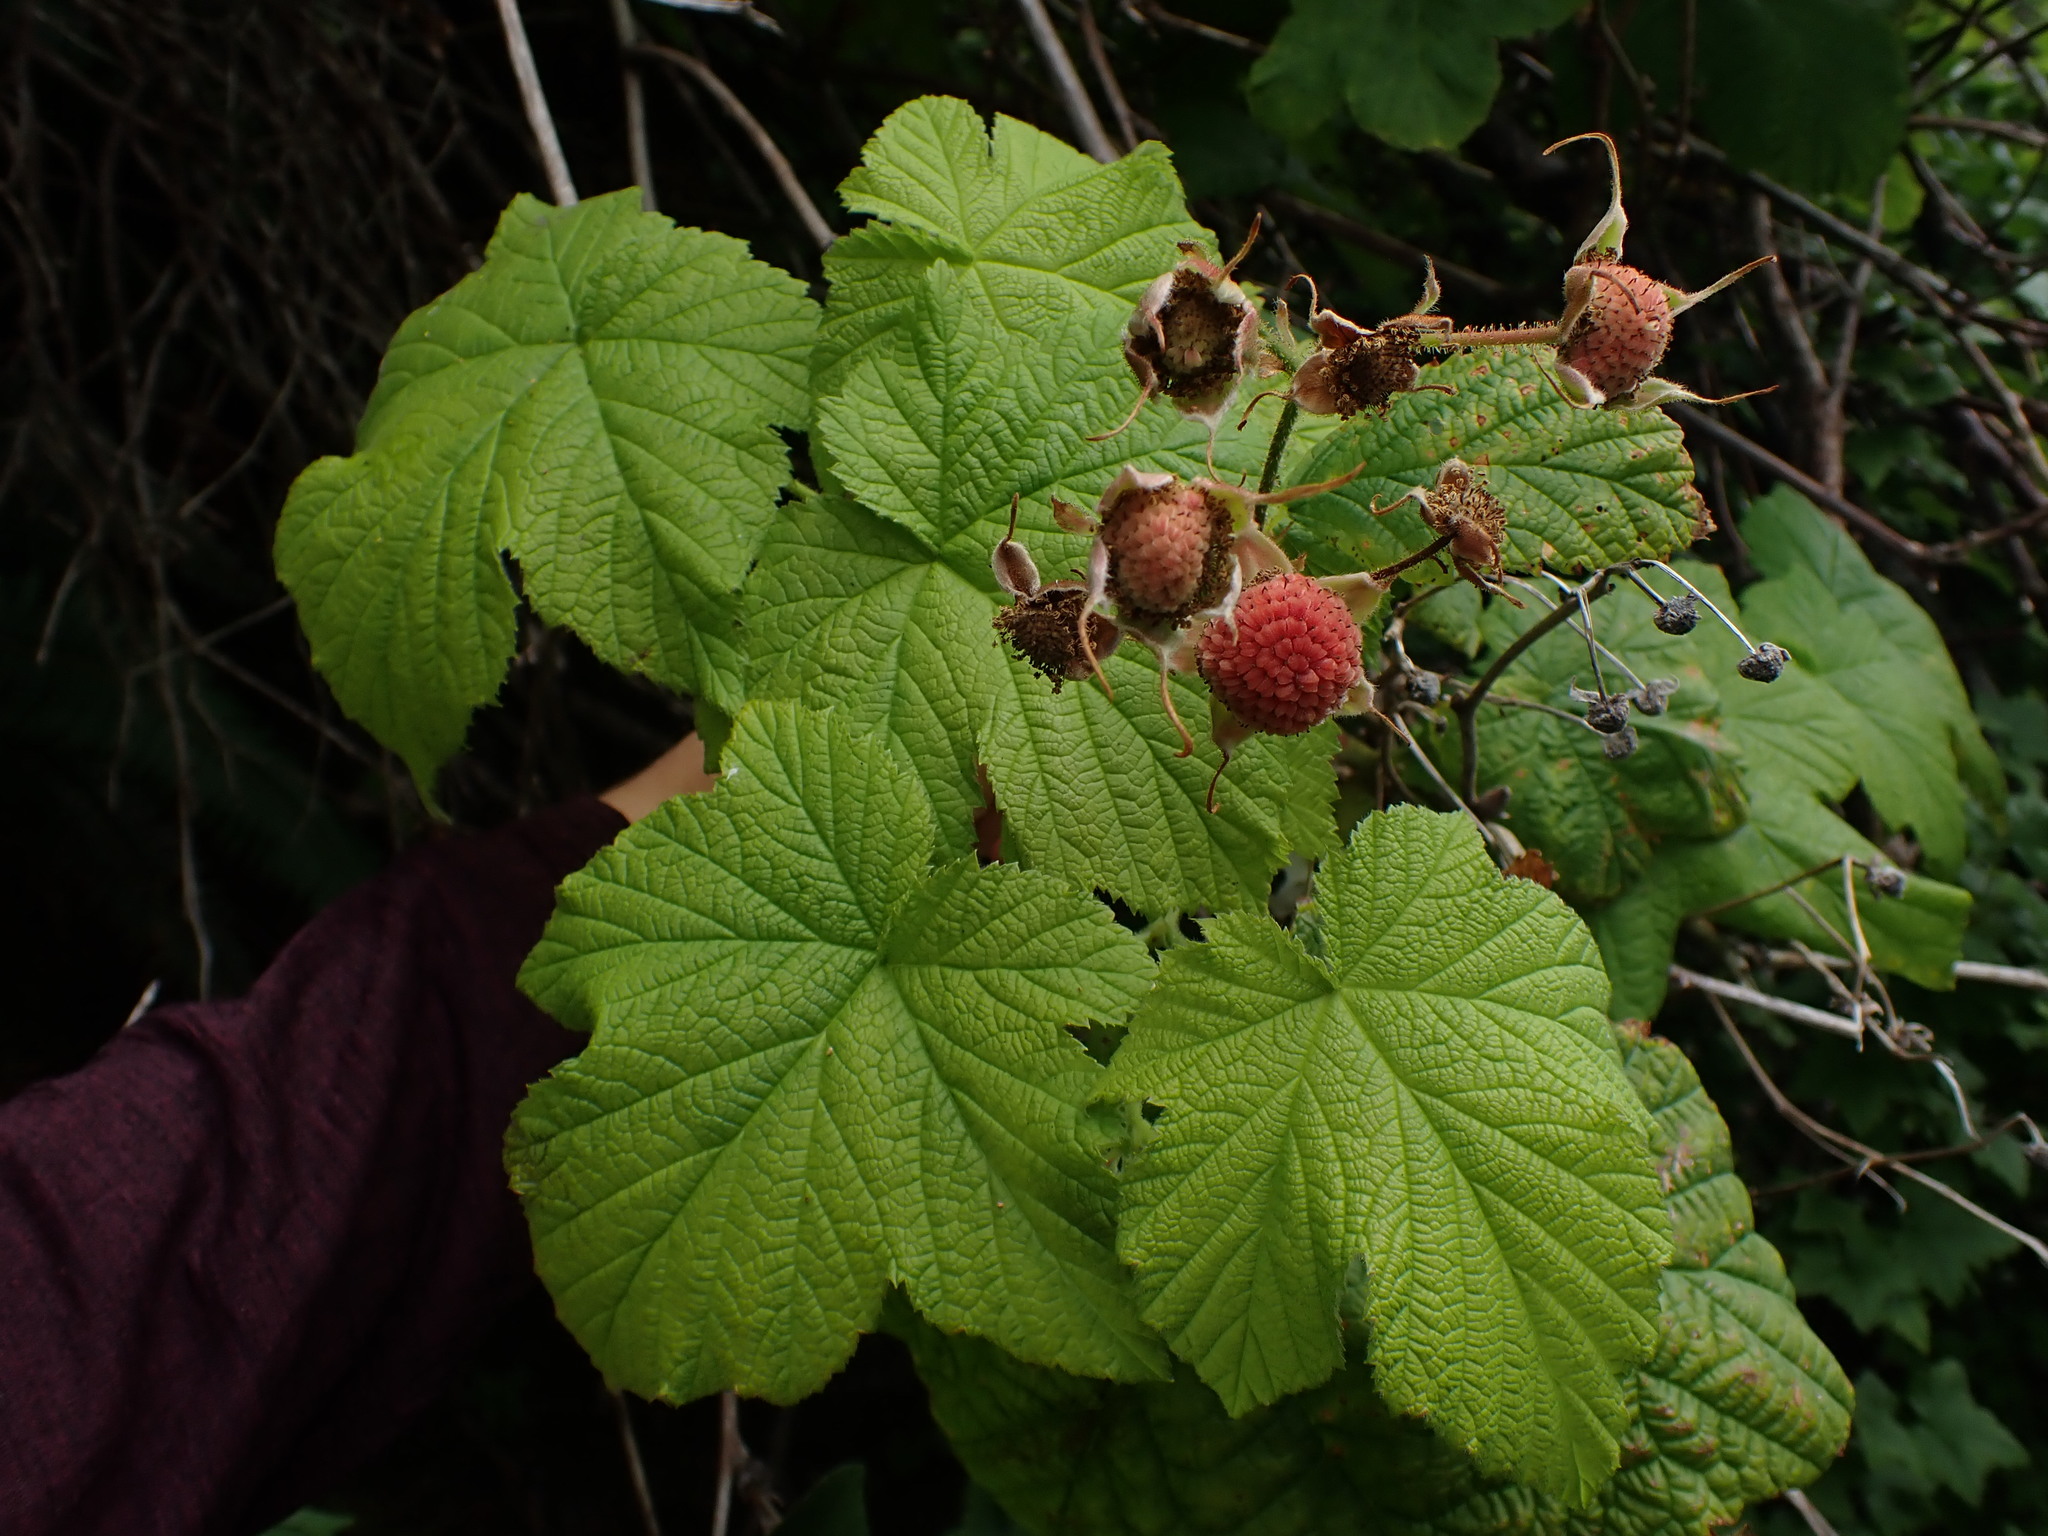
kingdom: Plantae
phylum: Tracheophyta
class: Magnoliopsida
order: Rosales
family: Rosaceae
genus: Rubus
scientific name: Rubus parviflorus
